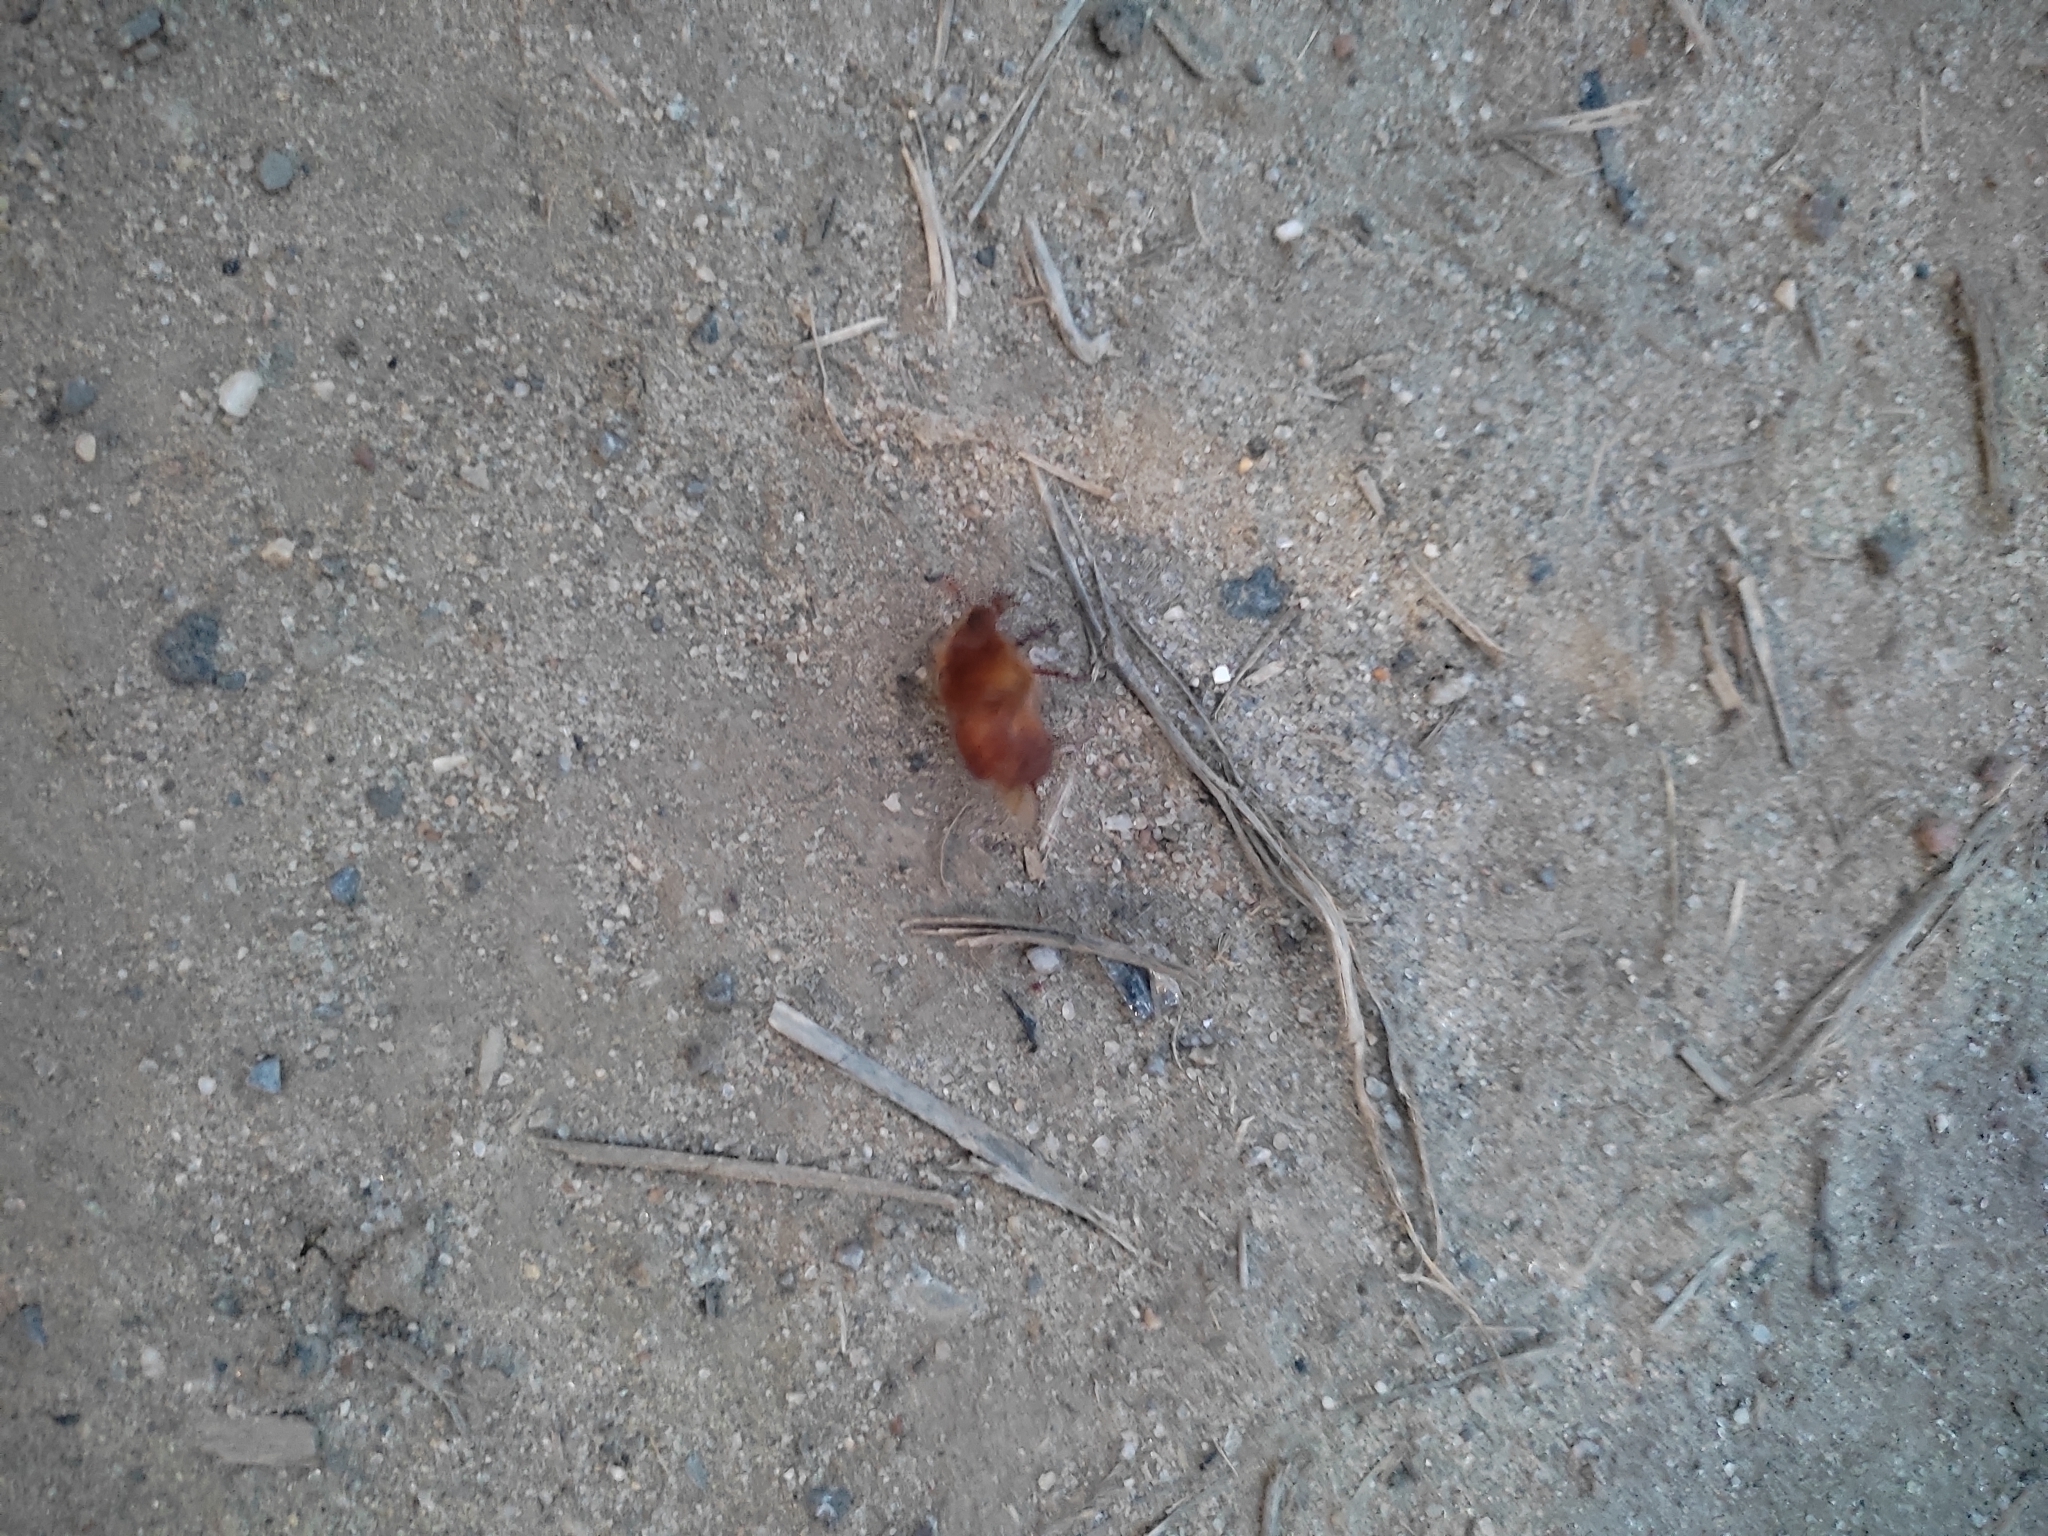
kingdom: Animalia
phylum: Arthropoda
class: Insecta
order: Coleoptera
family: Scarabaeidae
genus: Holochelus
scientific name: Holochelus aequinoctialis
